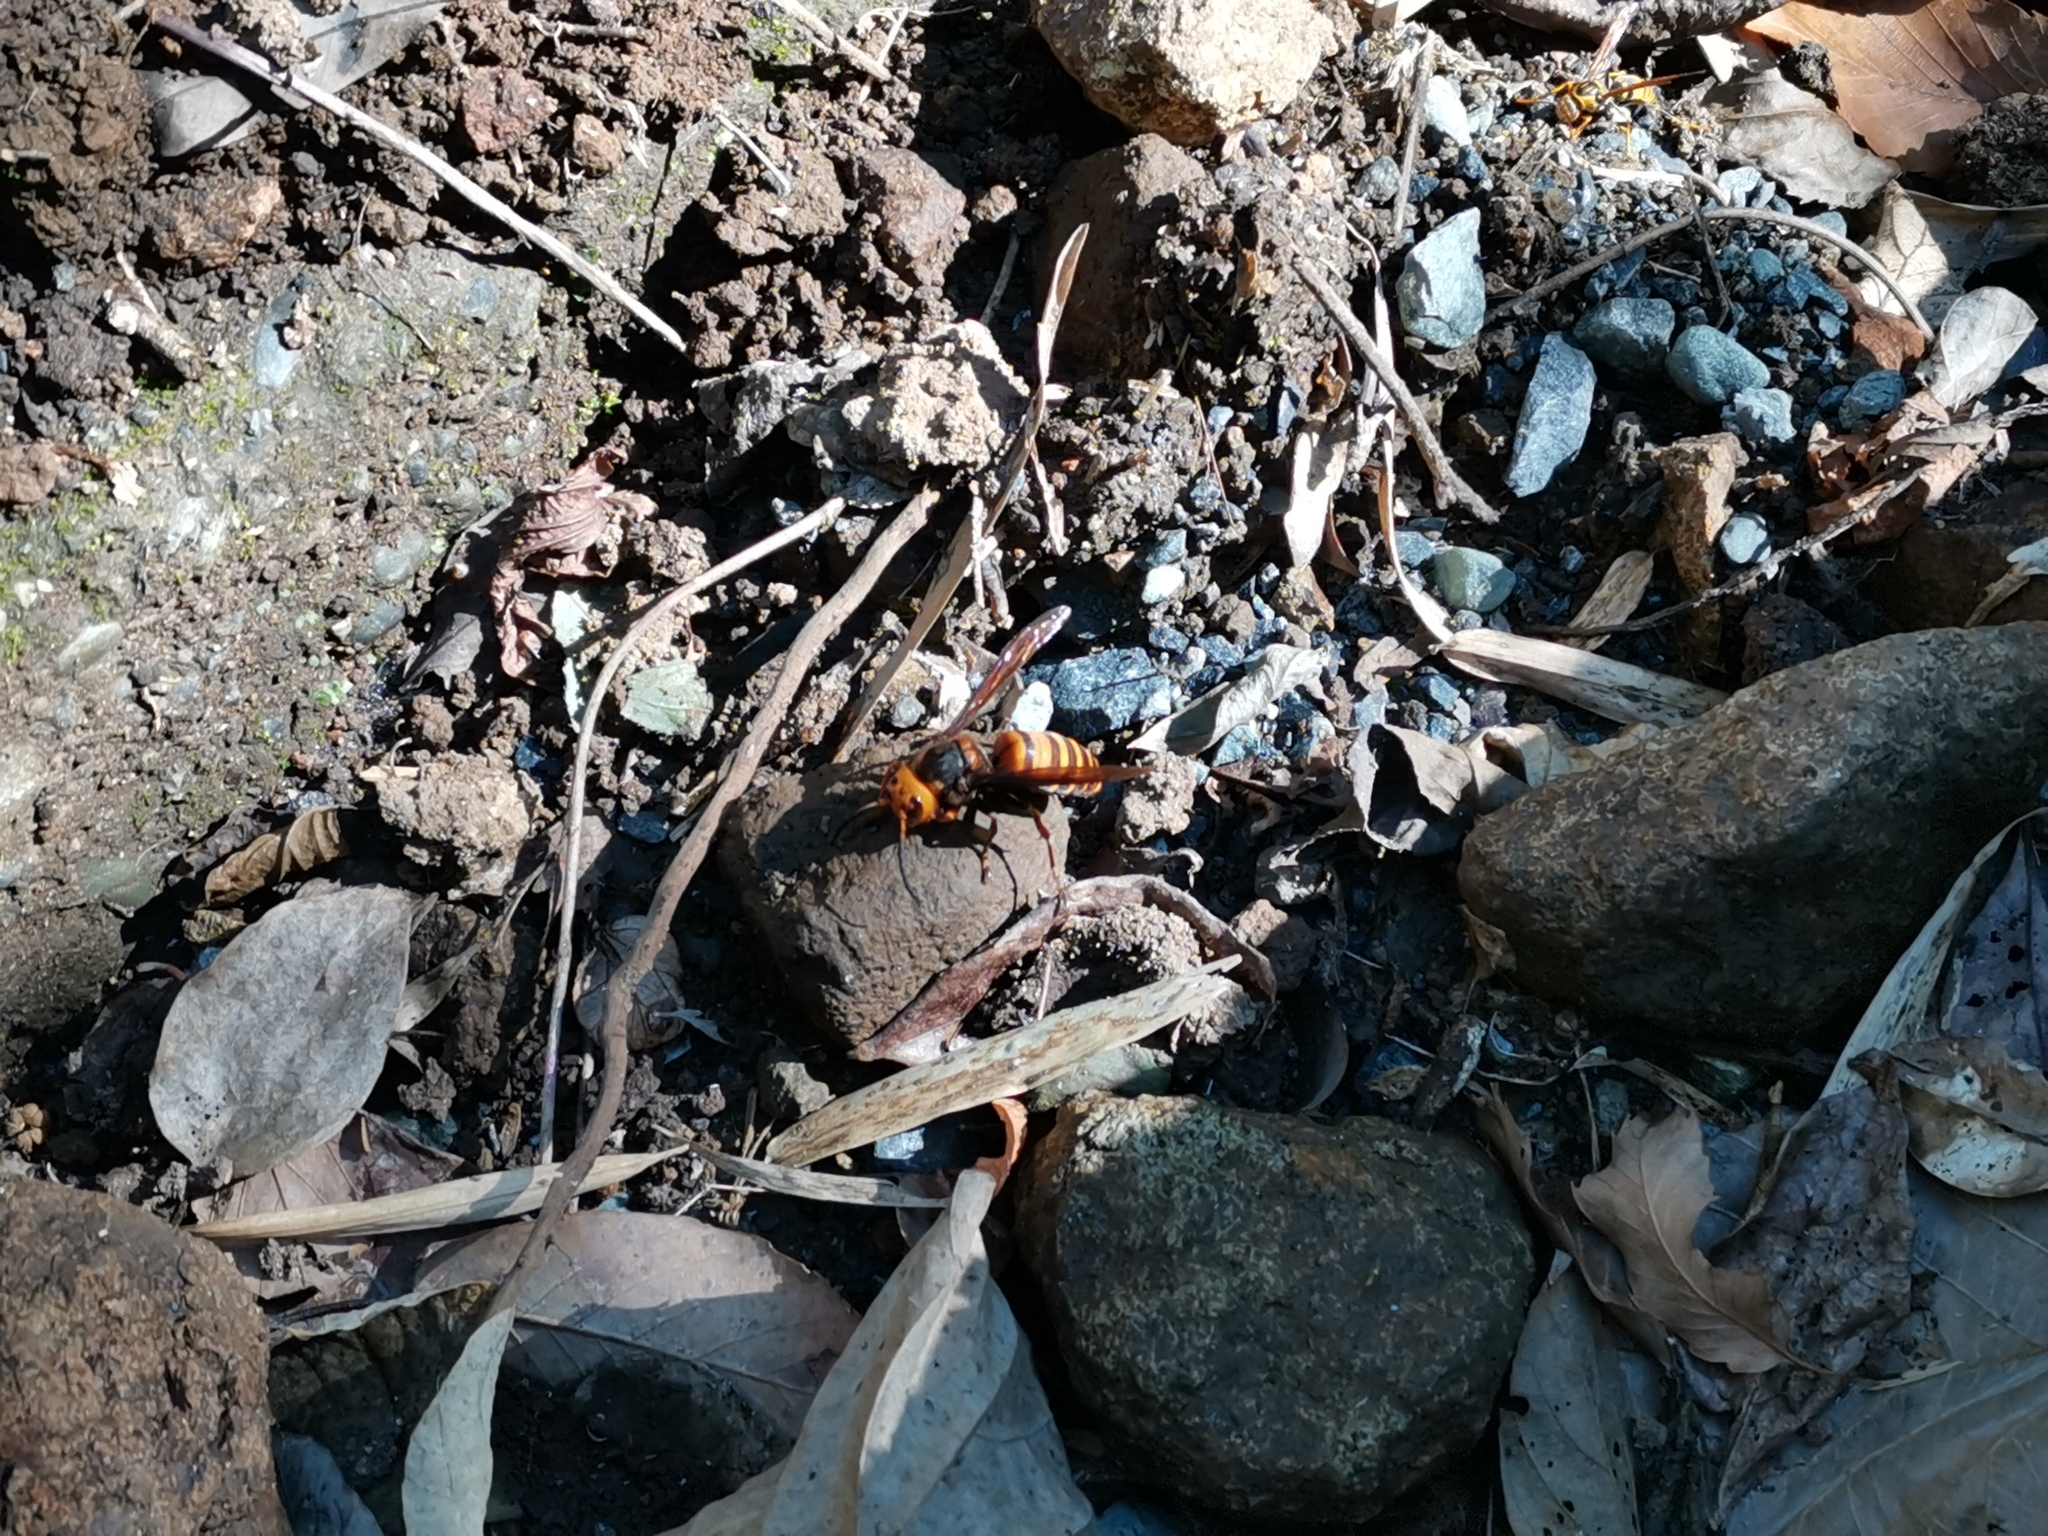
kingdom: Animalia
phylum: Arthropoda
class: Insecta
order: Hymenoptera
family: Vespidae
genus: Vespa
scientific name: Vespa mandarinia
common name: Asian giant hornet
